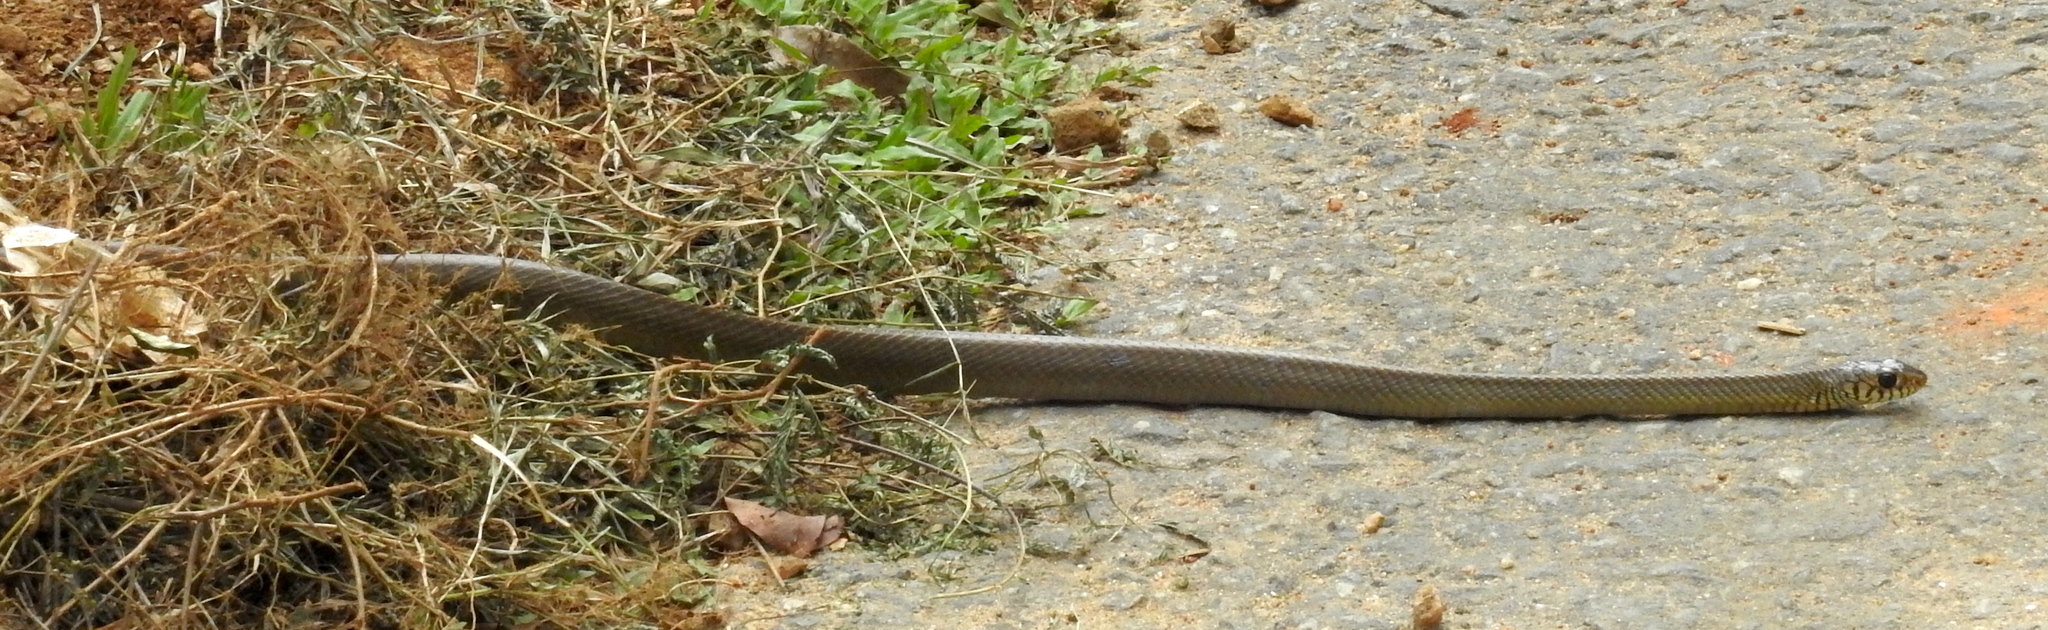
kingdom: Animalia
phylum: Chordata
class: Squamata
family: Colubridae
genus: Ptyas
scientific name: Ptyas mucosa
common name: Oriental ratsnake
